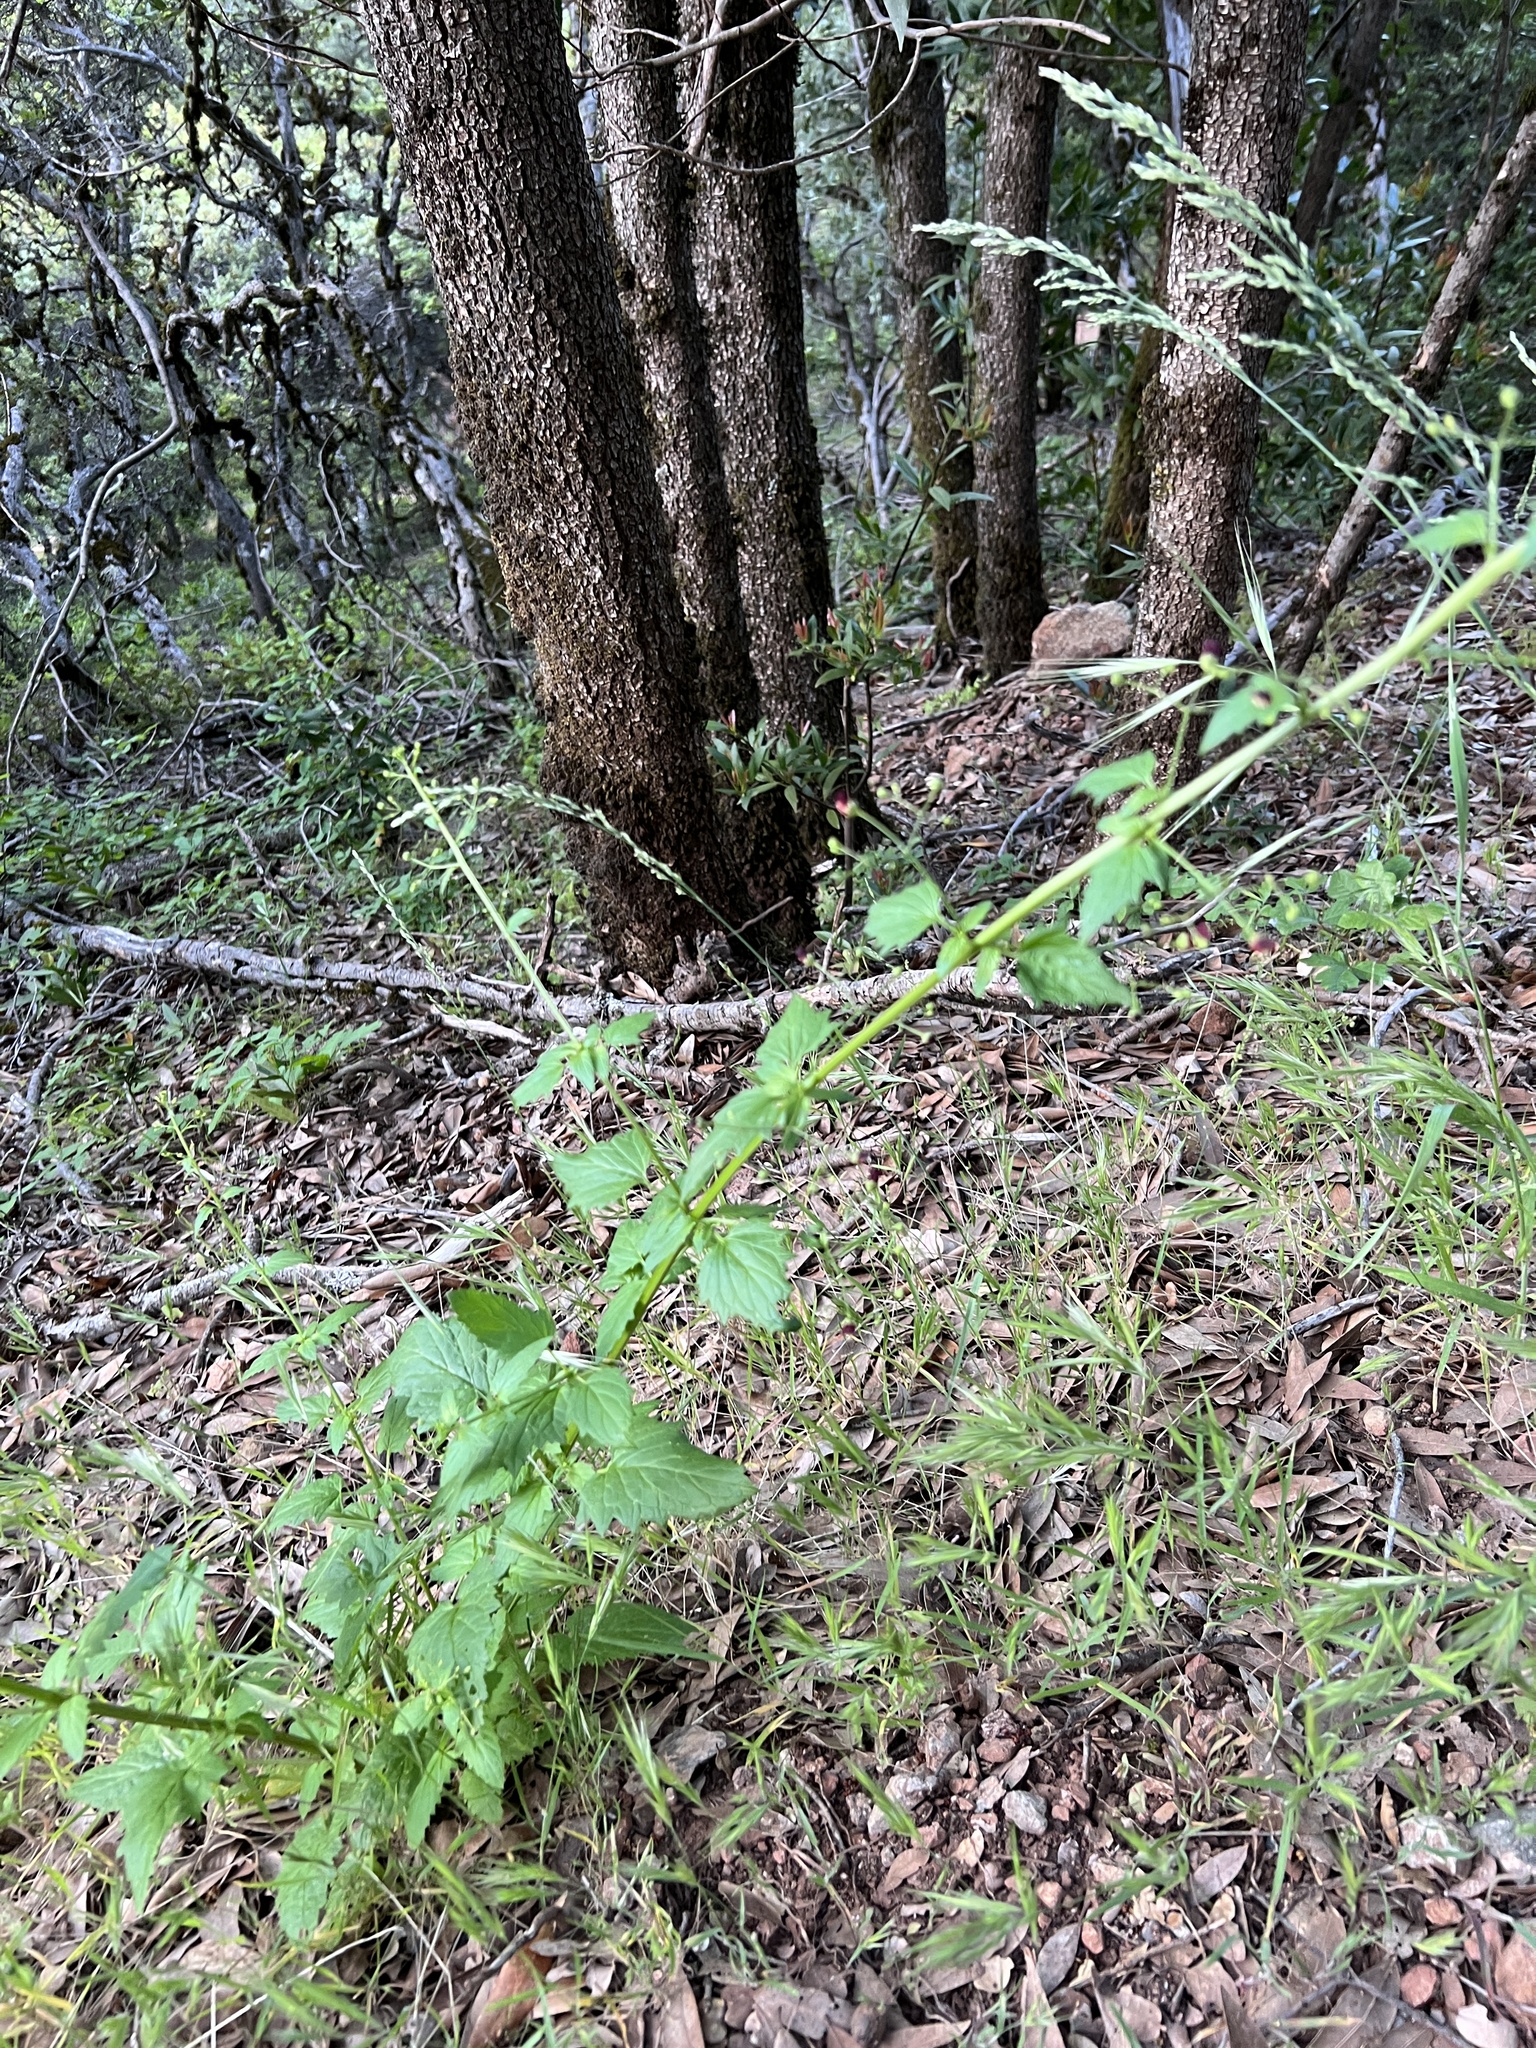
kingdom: Plantae
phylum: Tracheophyta
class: Magnoliopsida
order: Lamiales
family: Scrophulariaceae
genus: Scrophularia
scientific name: Scrophularia californica
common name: California figwort
